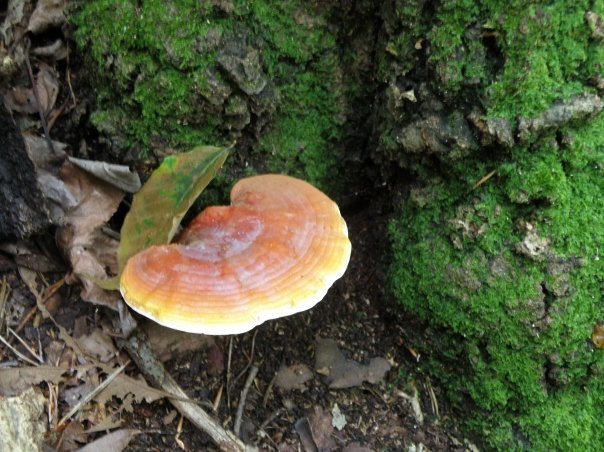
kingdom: Fungi
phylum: Basidiomycota
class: Agaricomycetes
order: Polyporales
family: Polyporaceae
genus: Ganoderma
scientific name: Ganoderma curtisii
